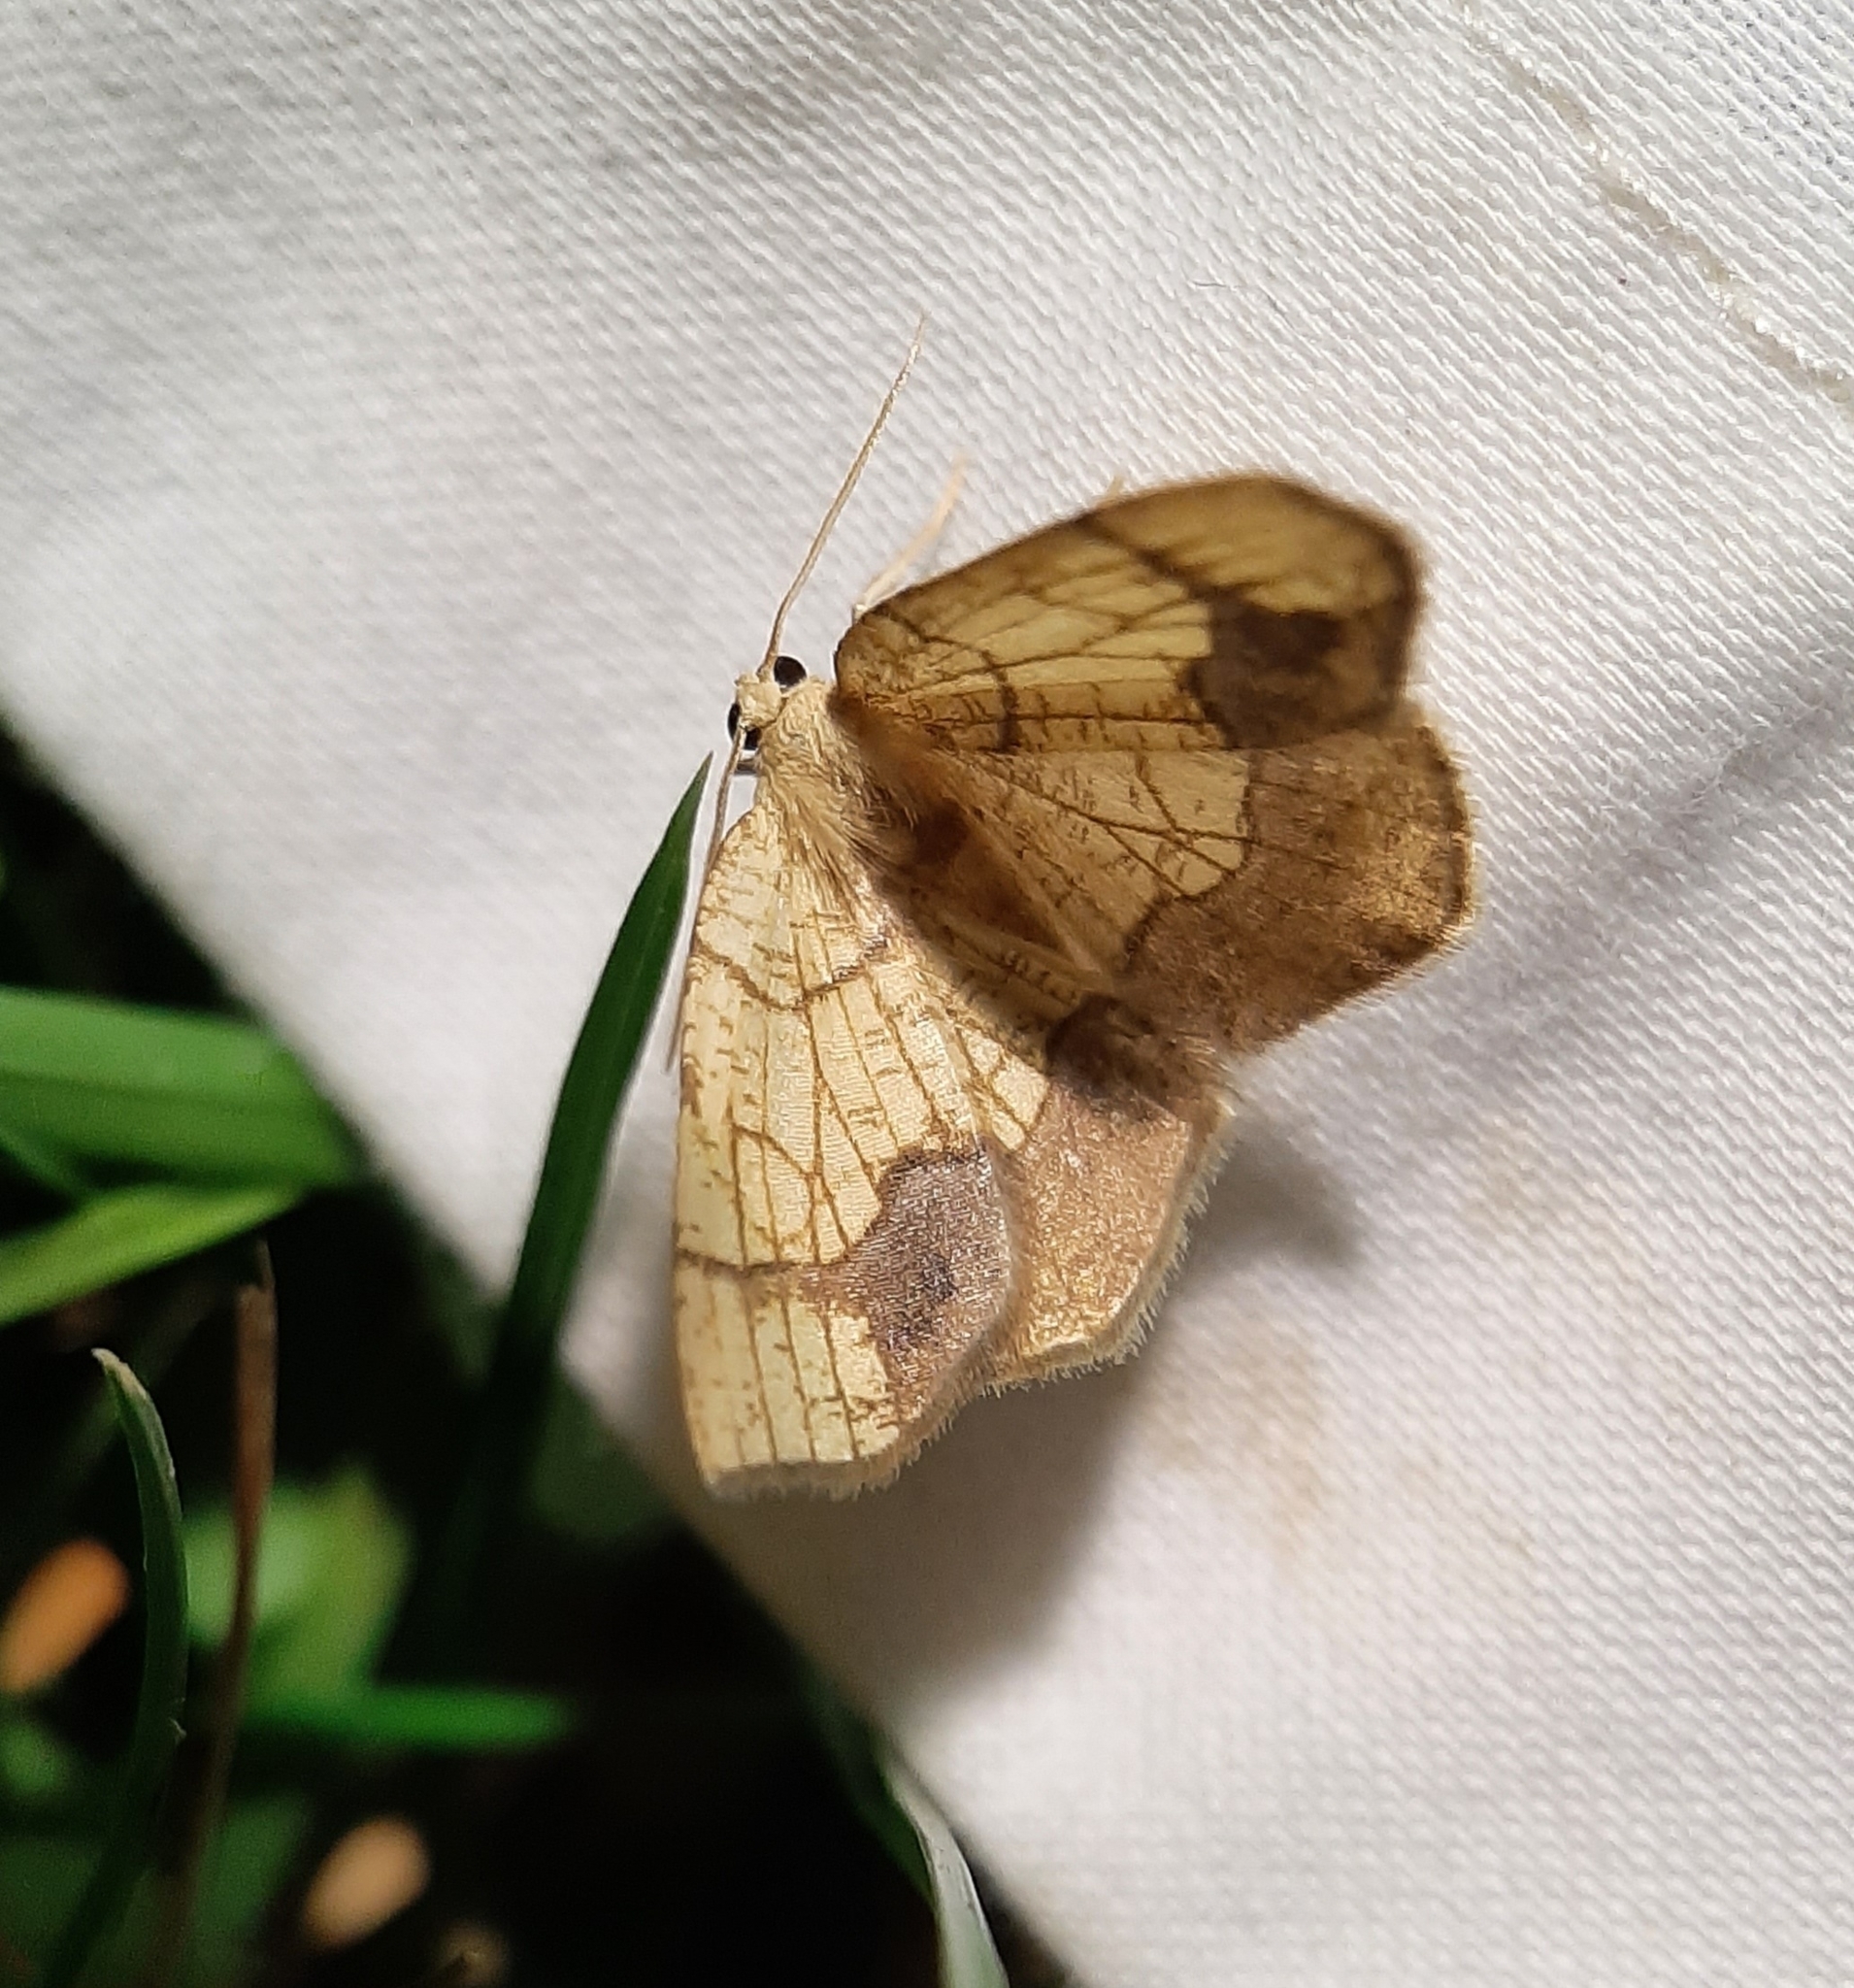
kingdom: Animalia
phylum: Arthropoda
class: Insecta
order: Lepidoptera
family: Geometridae
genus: Nematocampa
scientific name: Nematocampa resistaria
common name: Horned spanworm moth
